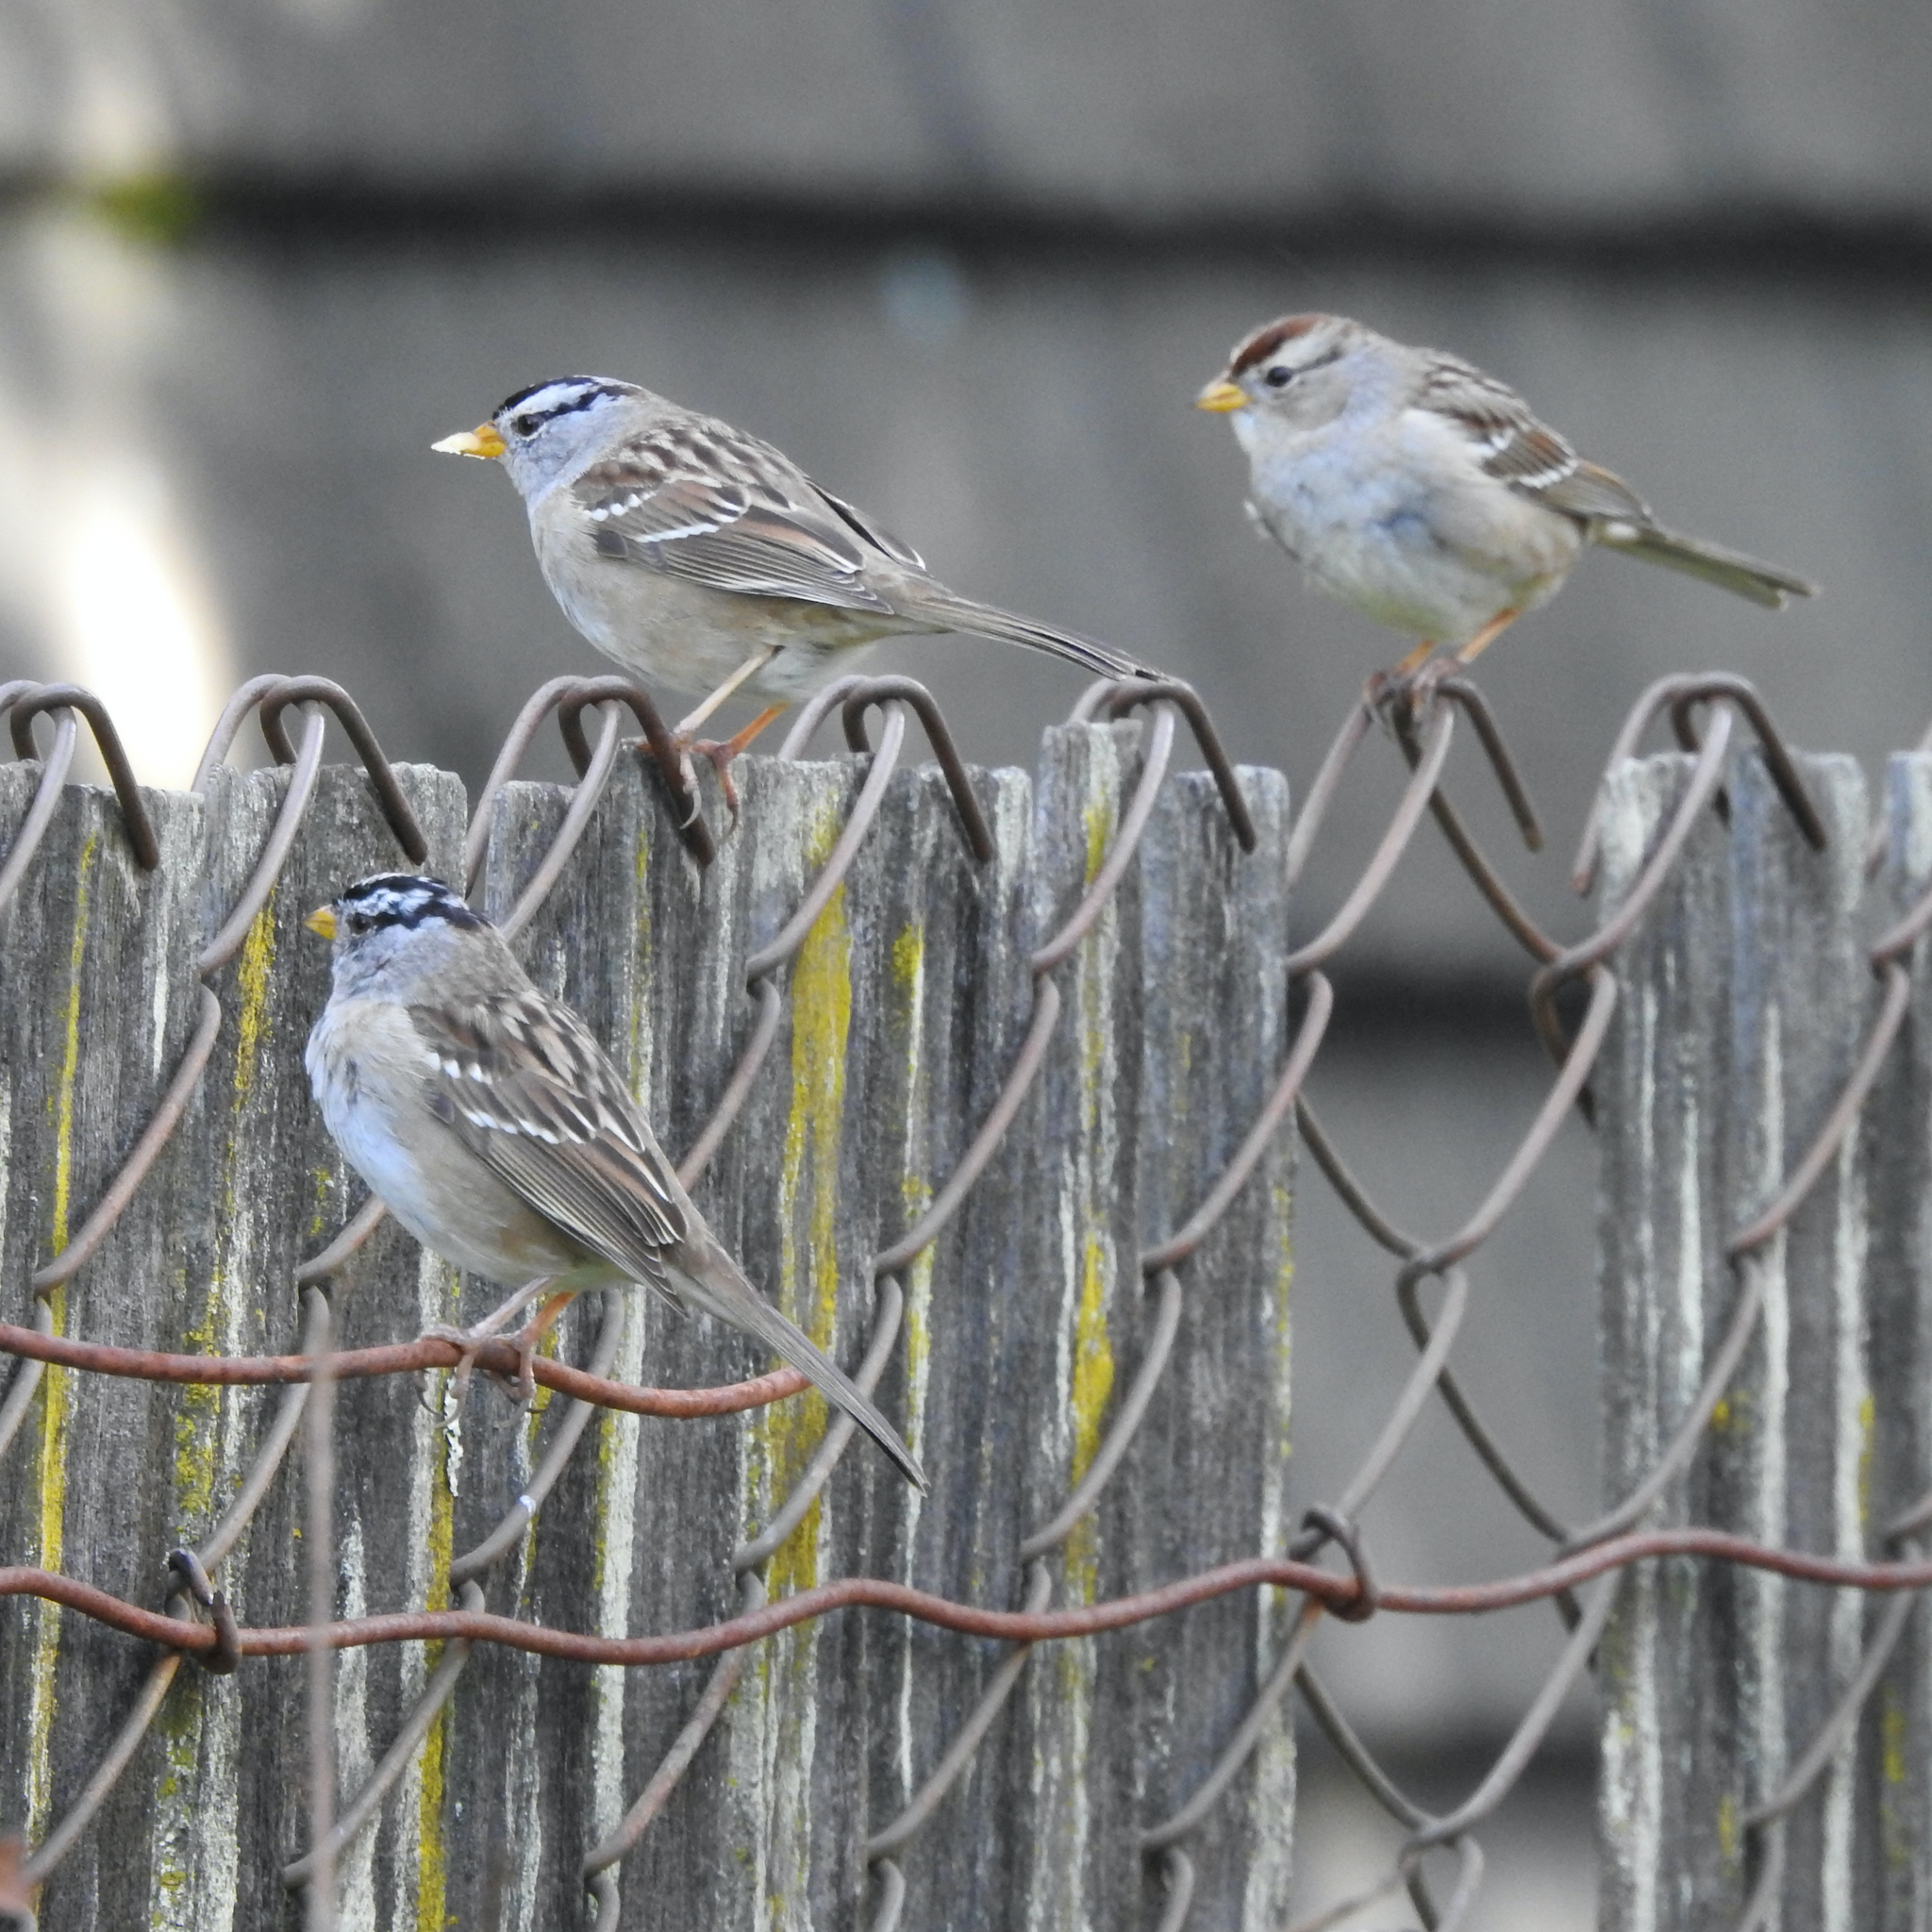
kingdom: Animalia
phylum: Chordata
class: Aves
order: Passeriformes
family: Passerellidae
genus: Zonotrichia
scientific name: Zonotrichia leucophrys
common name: White-crowned sparrow
